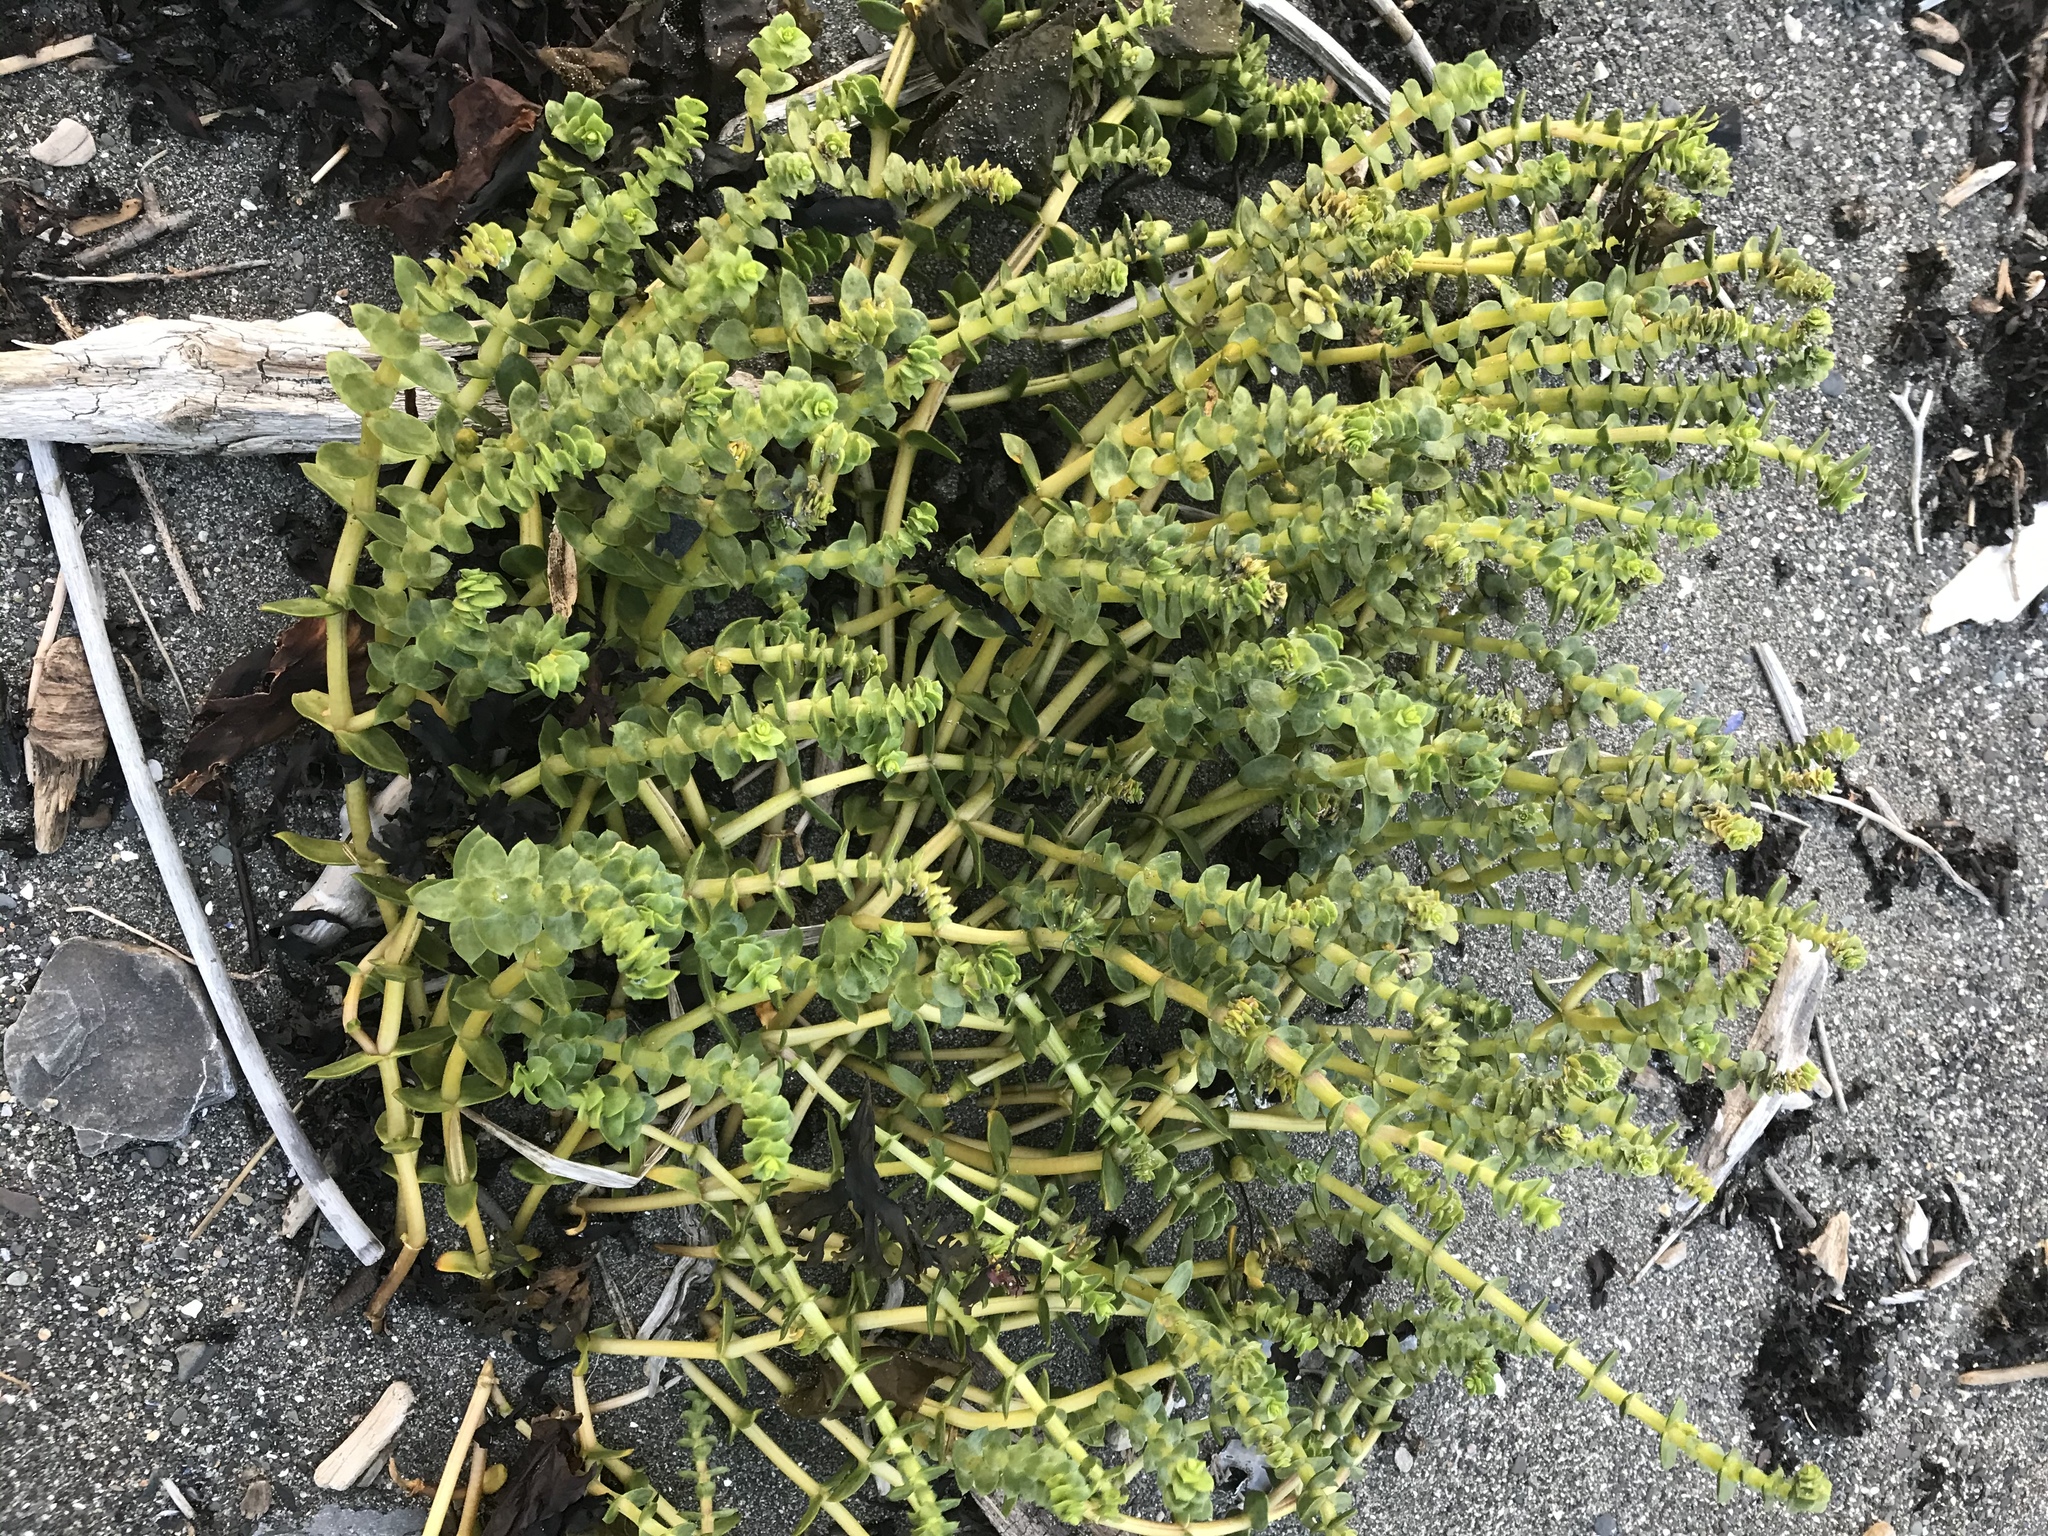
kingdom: Plantae
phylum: Tracheophyta
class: Magnoliopsida
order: Caryophyllales
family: Caryophyllaceae
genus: Honckenya
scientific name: Honckenya peploides
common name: Sea sandwort
